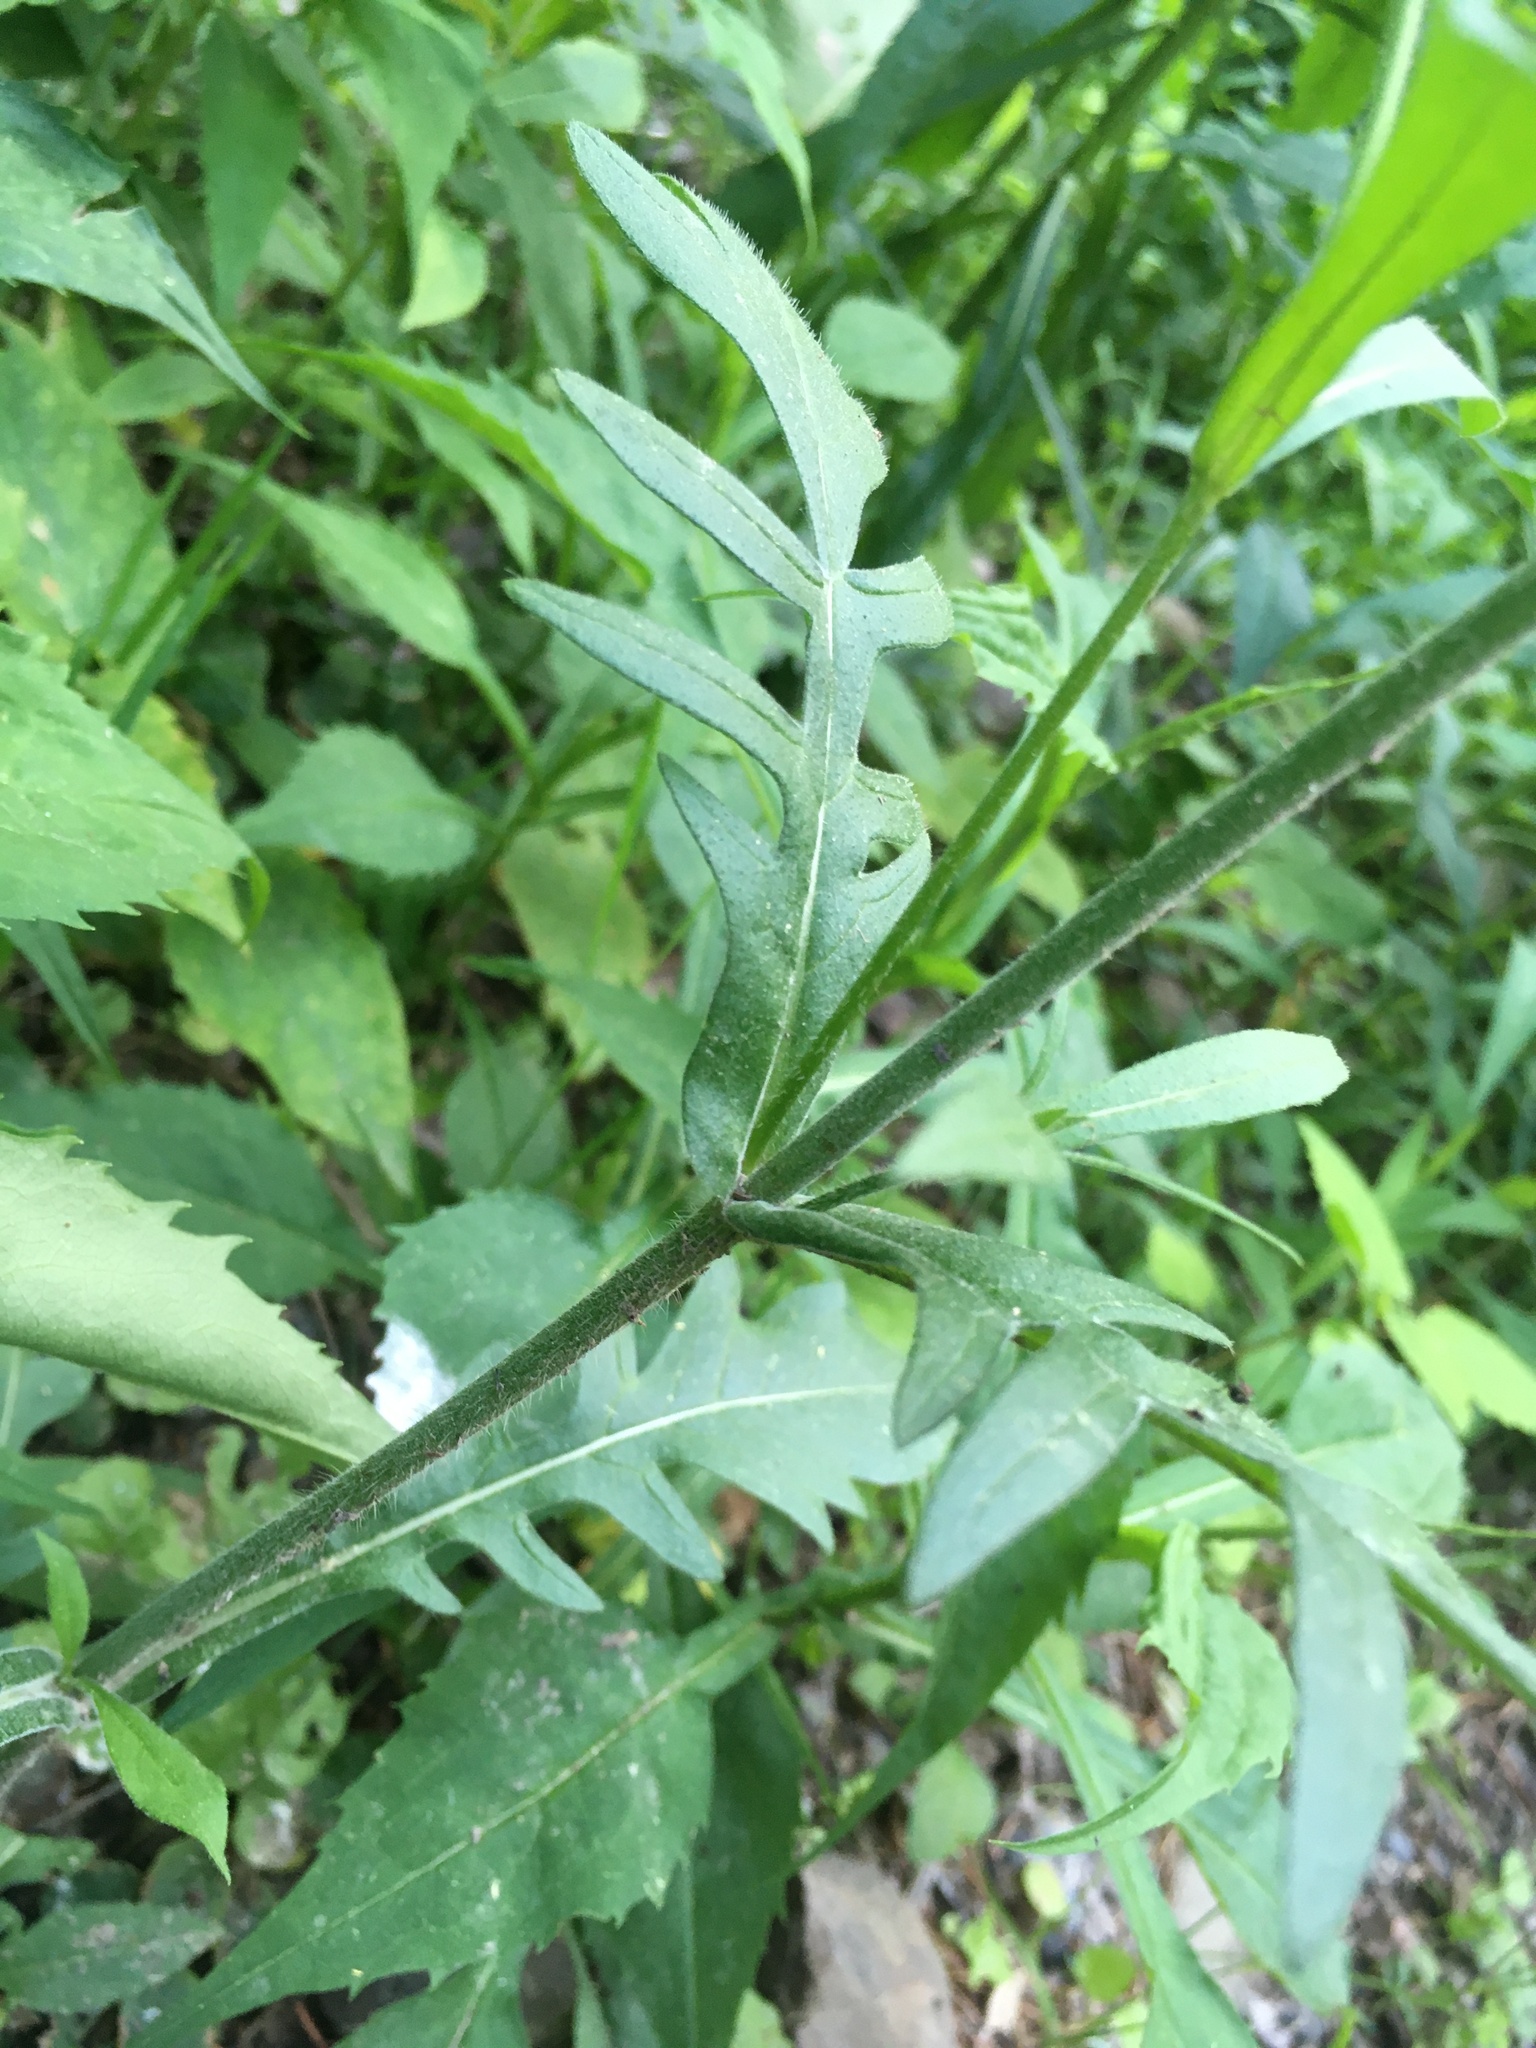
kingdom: Plantae
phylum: Tracheophyta
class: Magnoliopsida
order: Dipsacales
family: Caprifoliaceae
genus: Knautia
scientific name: Knautia arvensis
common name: Field scabiosa
